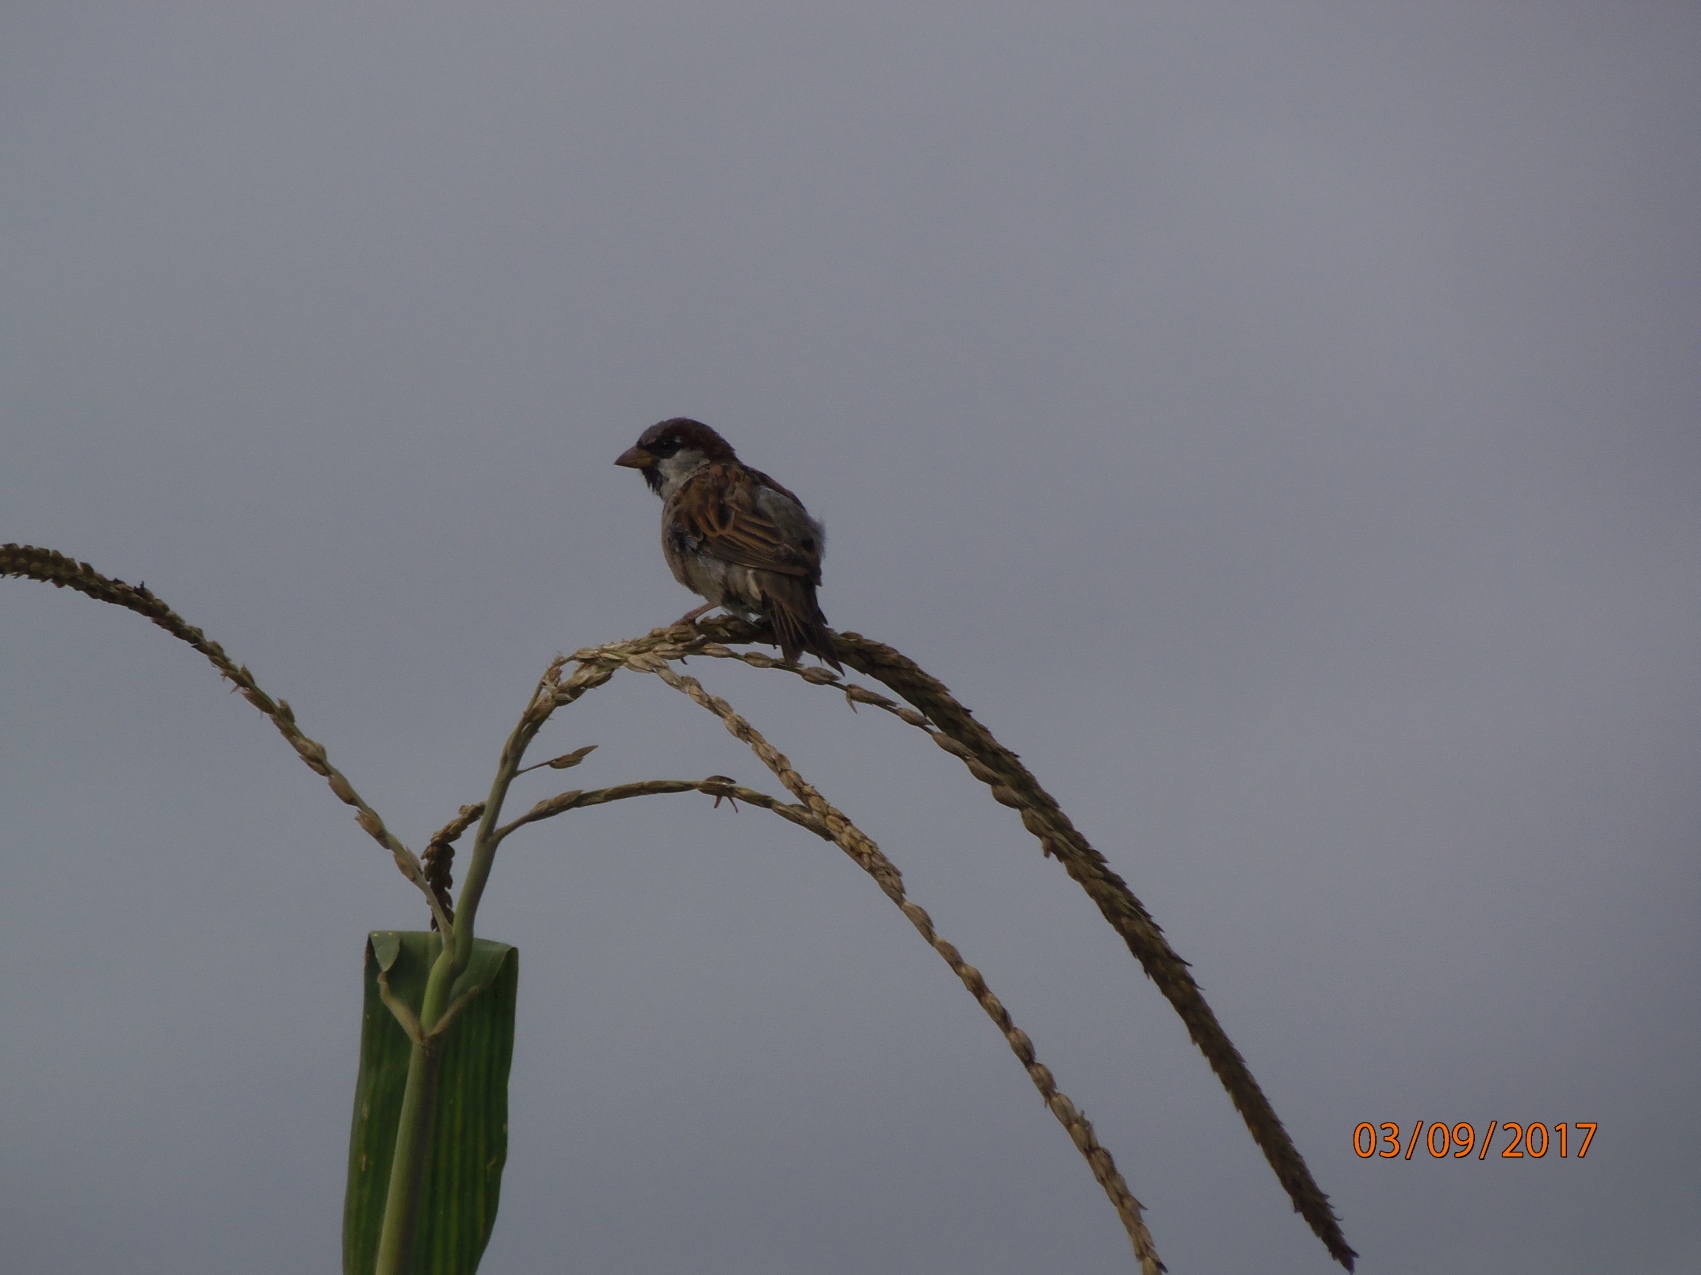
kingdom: Animalia
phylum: Chordata
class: Aves
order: Passeriformes
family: Passeridae
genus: Passer
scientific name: Passer domesticus
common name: House sparrow
